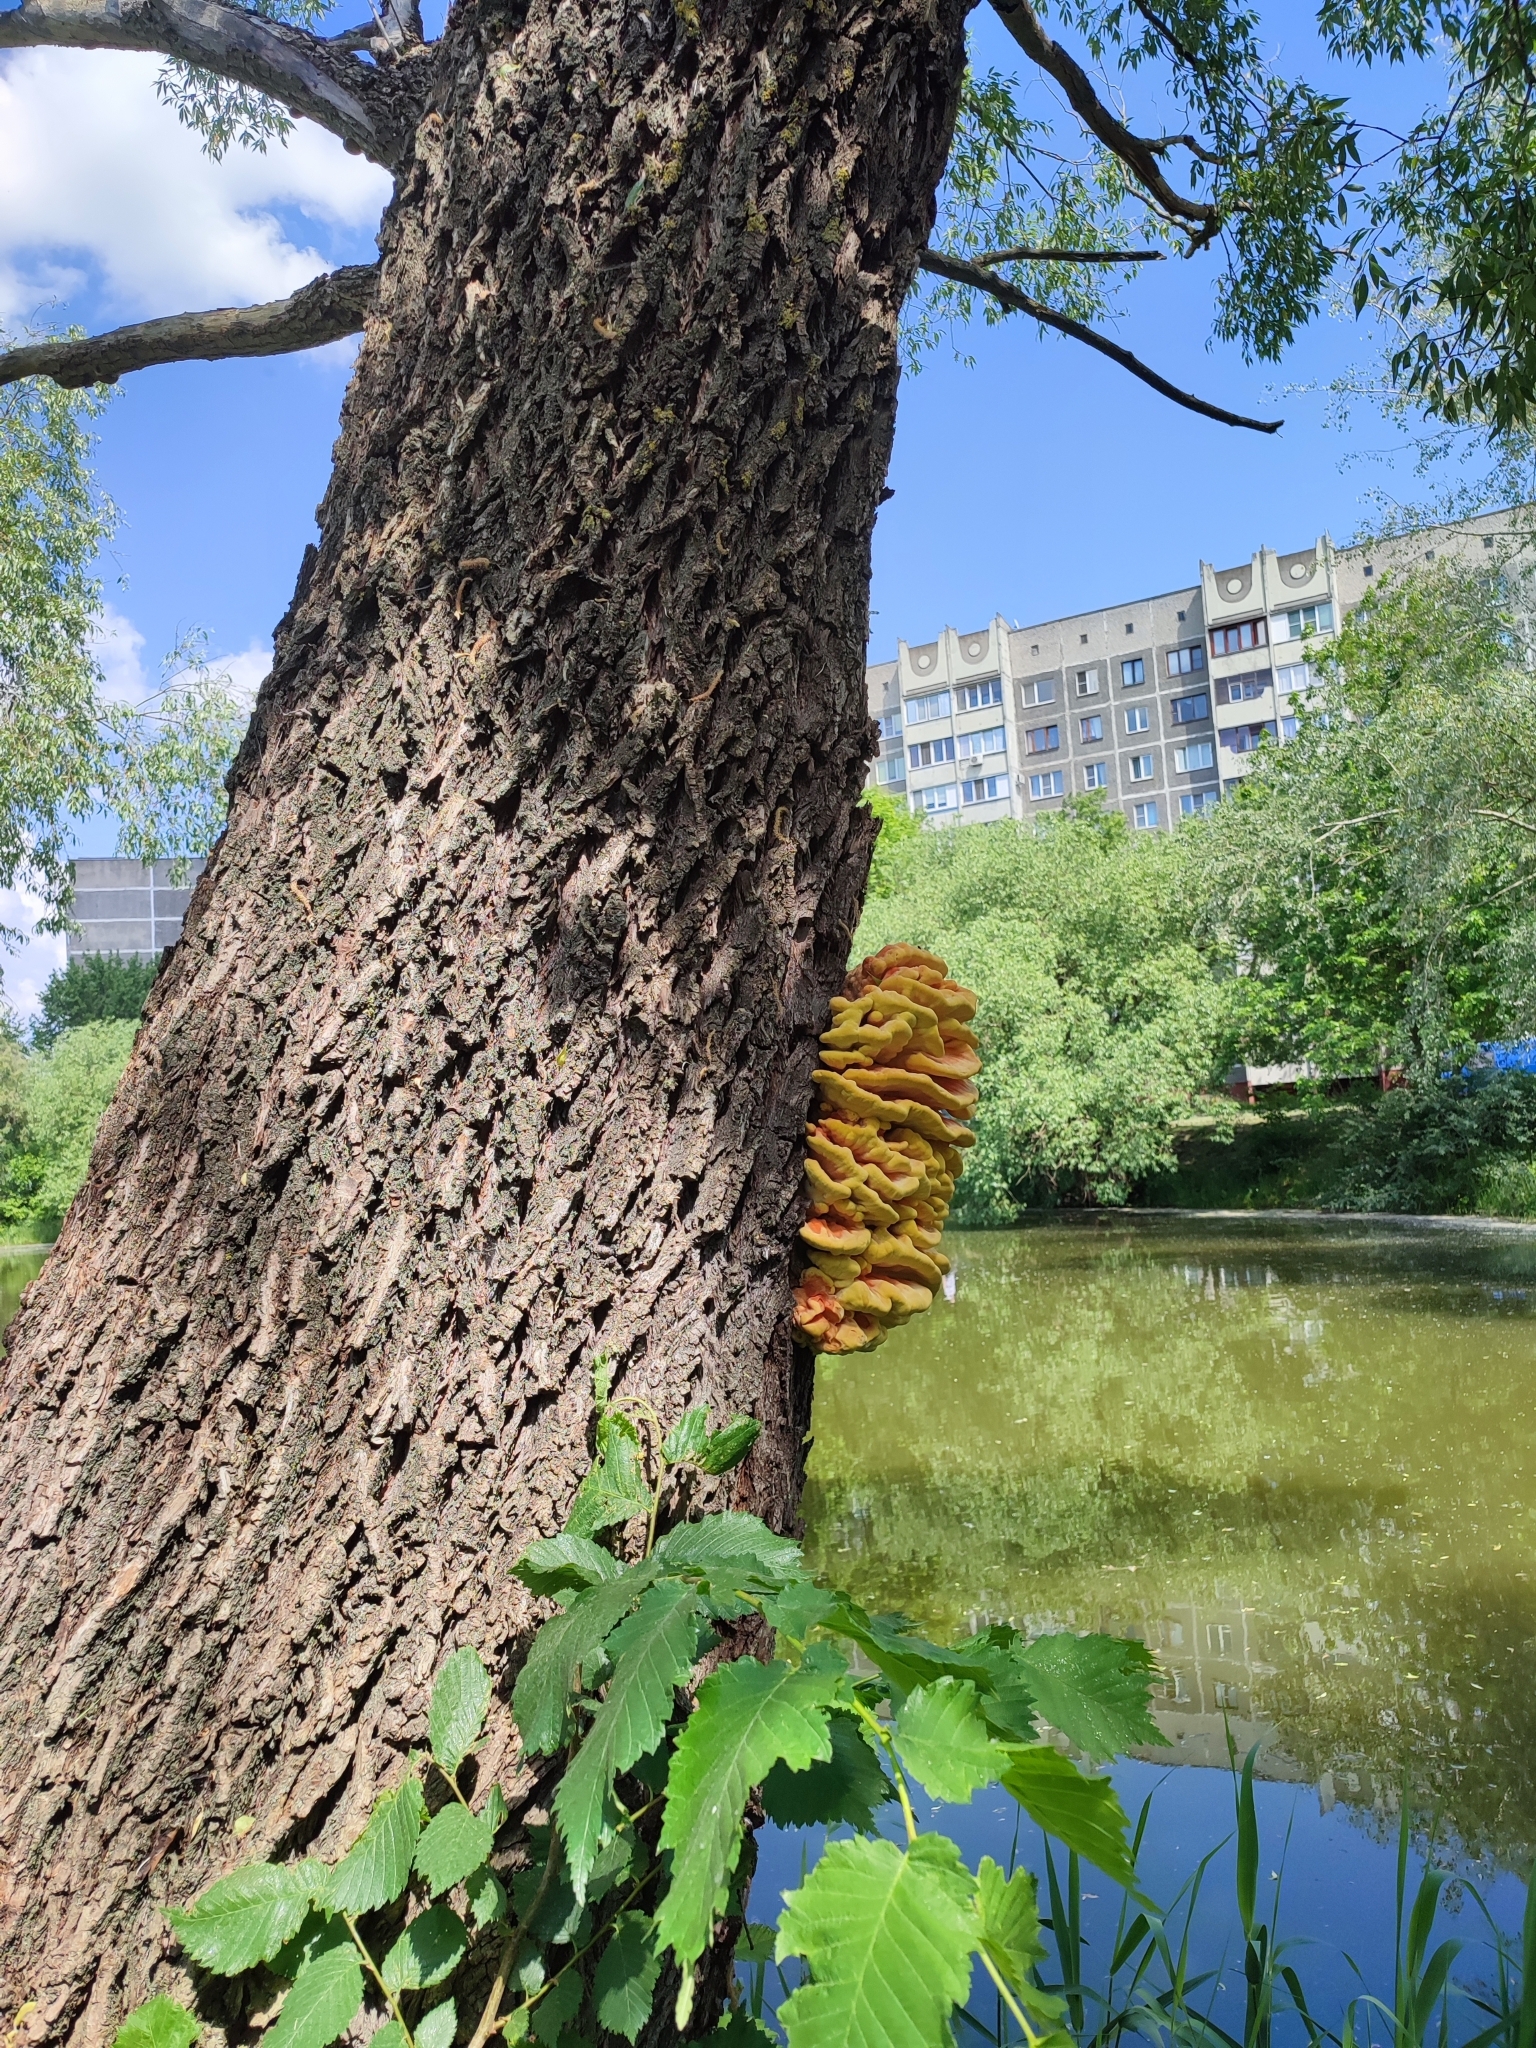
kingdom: Fungi
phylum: Basidiomycota
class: Agaricomycetes
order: Polyporales
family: Laetiporaceae
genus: Laetiporus
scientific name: Laetiporus sulphureus
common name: Chicken of the woods
